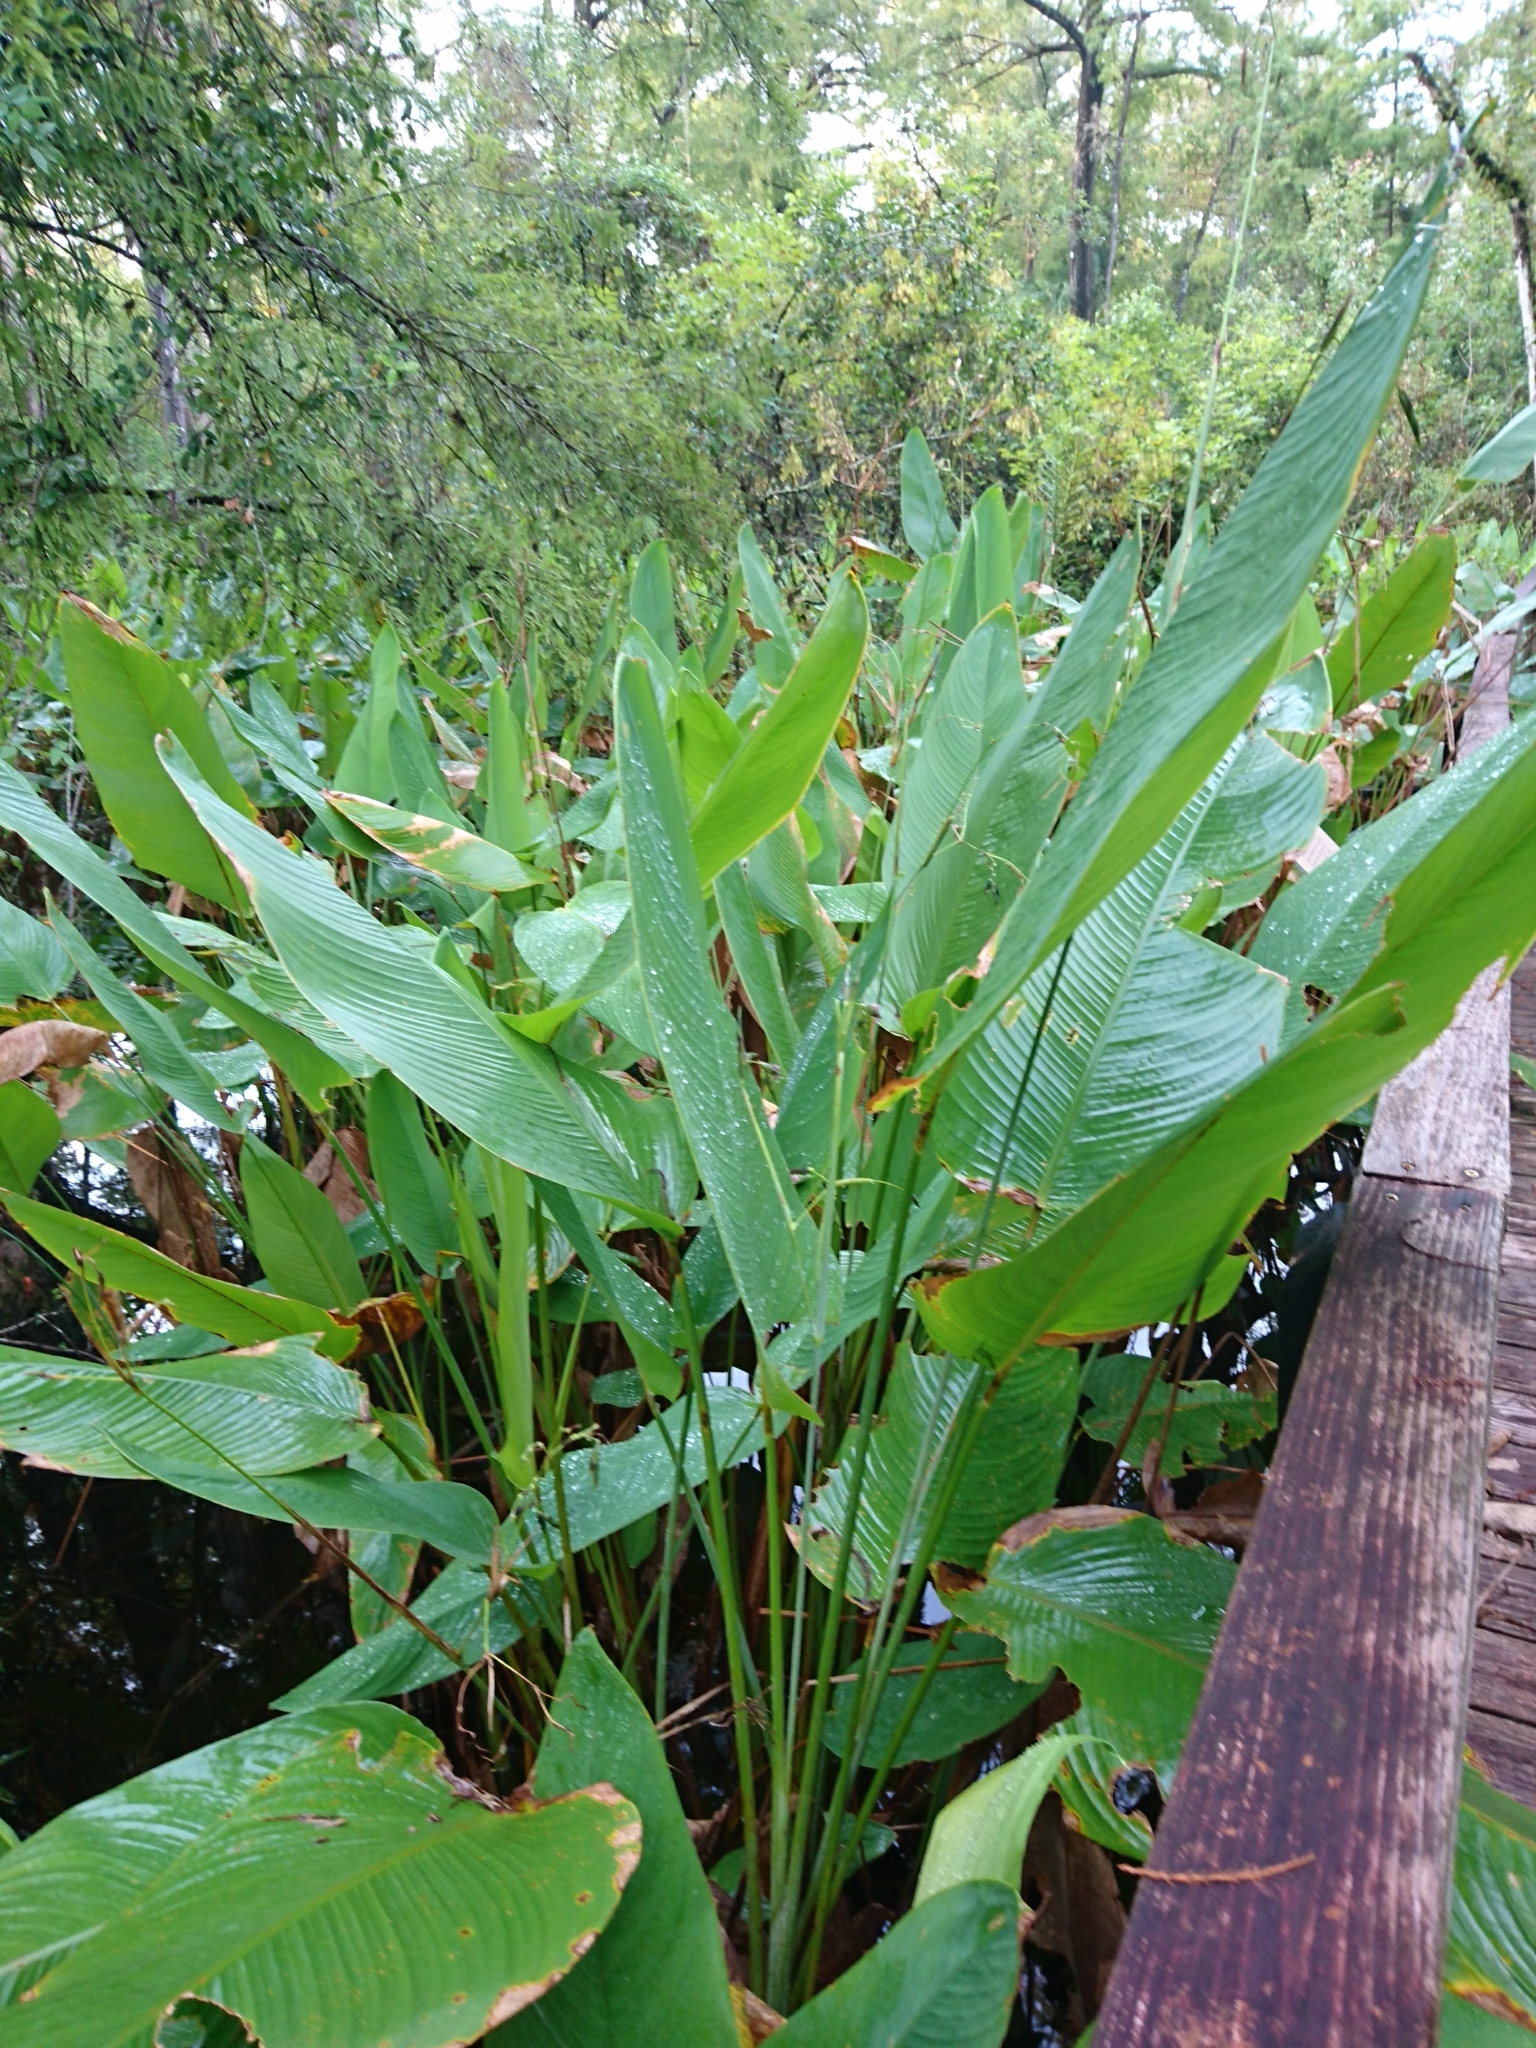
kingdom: Plantae
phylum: Tracheophyta
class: Liliopsida
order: Zingiberales
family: Marantaceae
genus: Thalia
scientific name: Thalia geniculata
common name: Arrowroot
